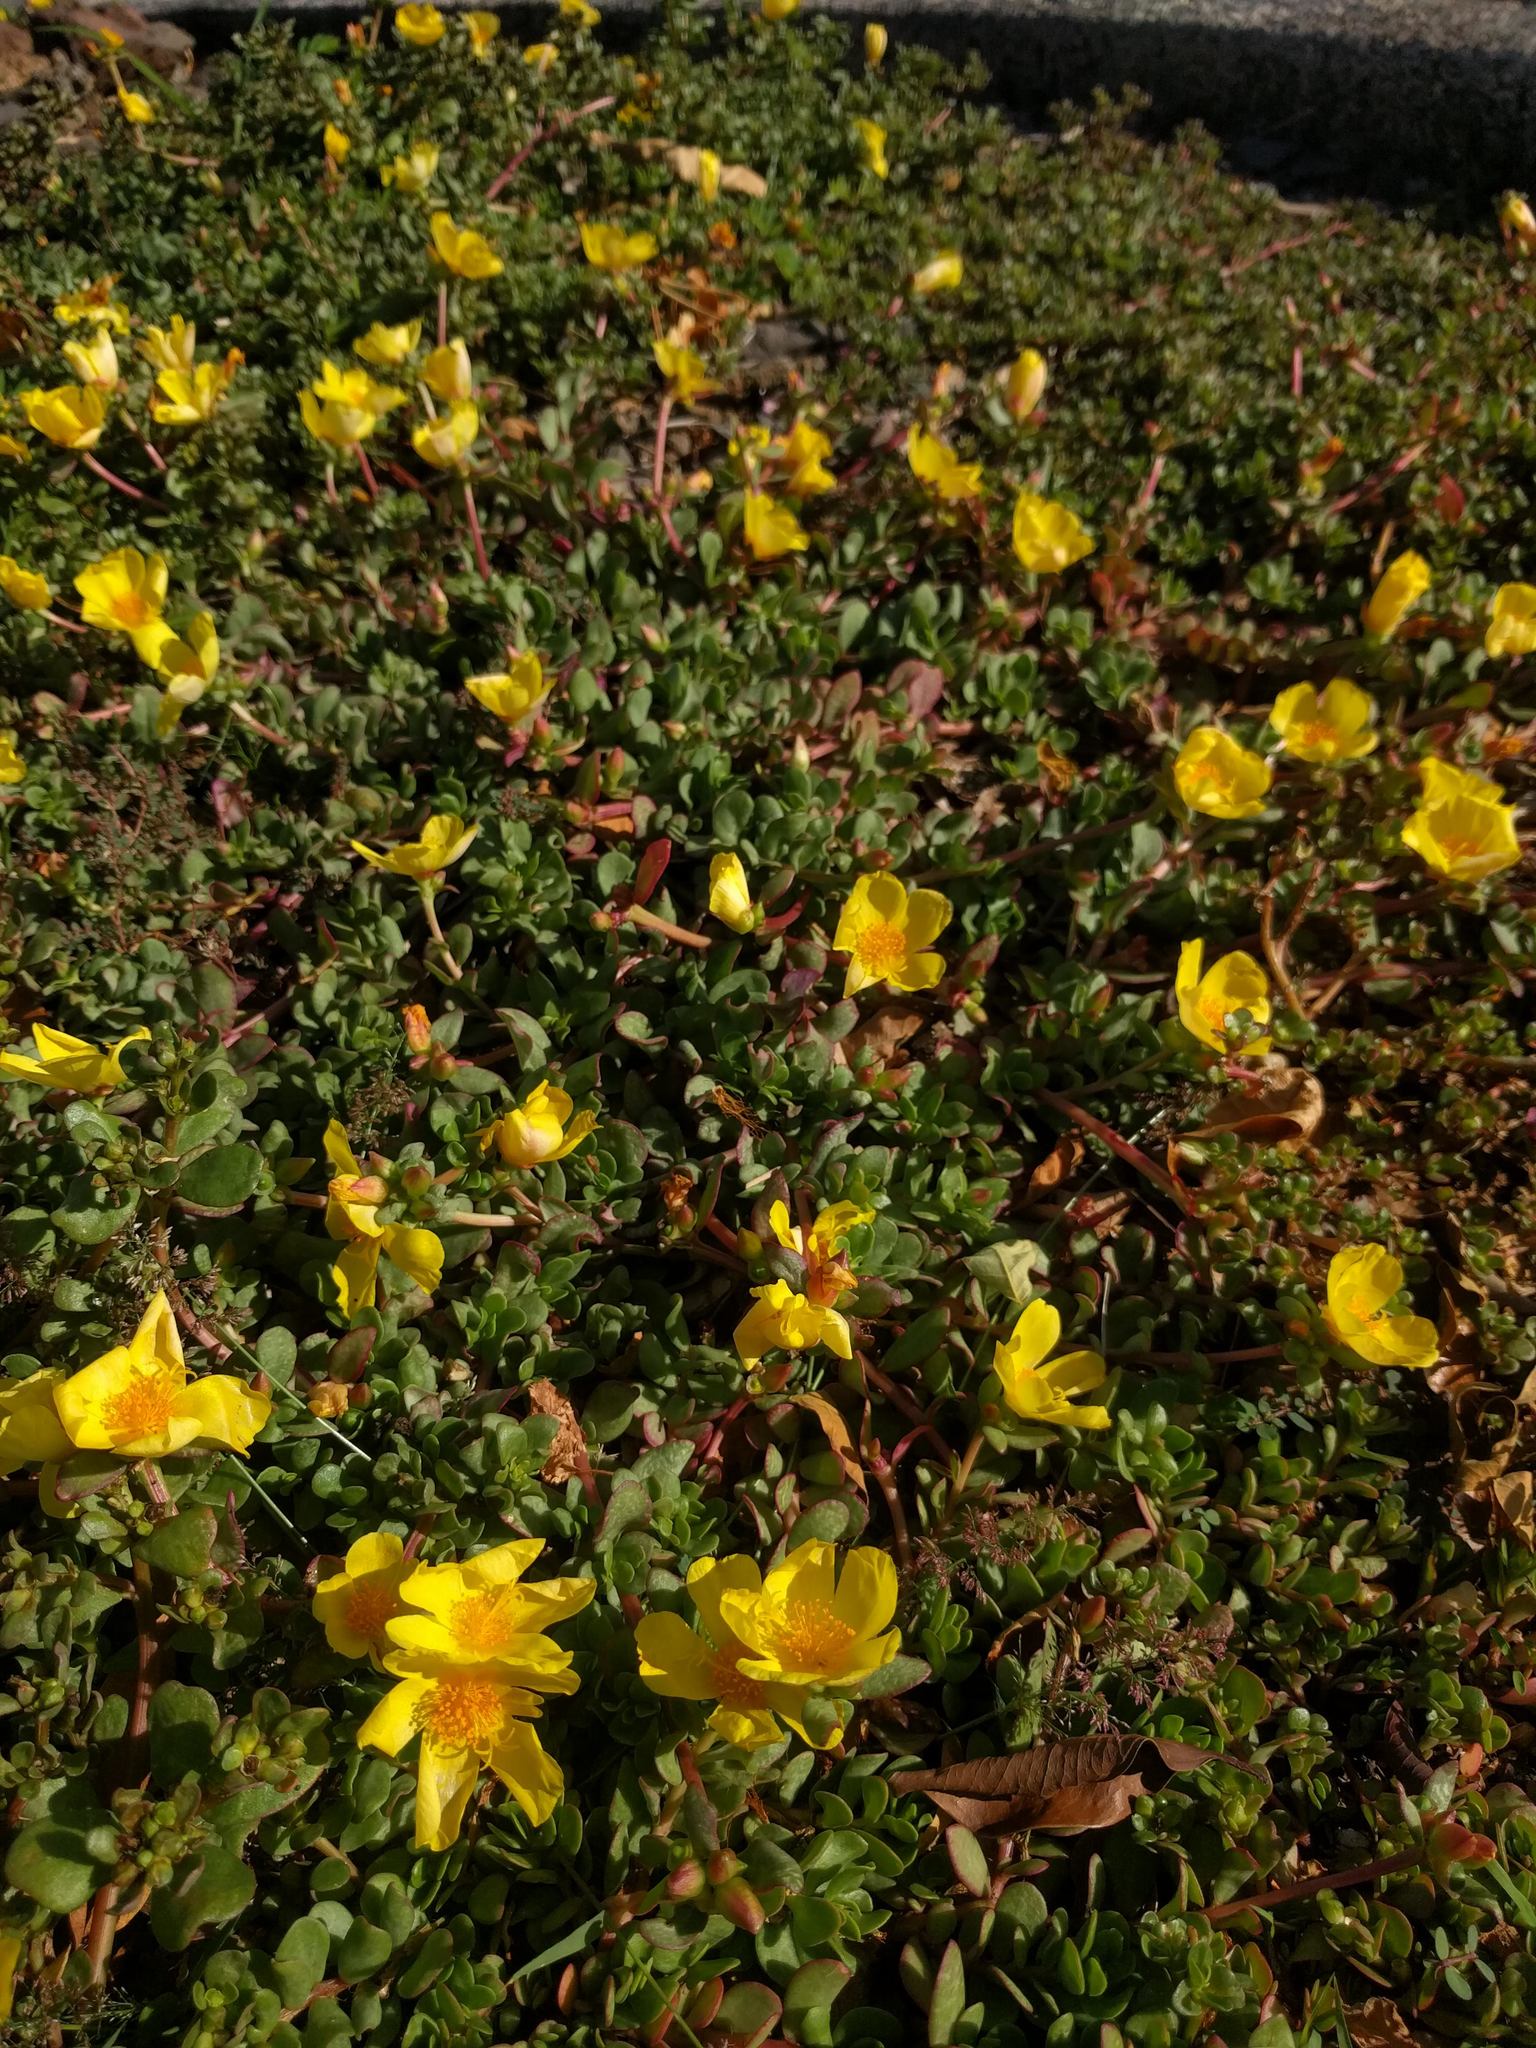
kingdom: Plantae
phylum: Tracheophyta
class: Magnoliopsida
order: Caryophyllales
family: Portulacaceae
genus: Portulaca
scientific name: Portulaca lutea
